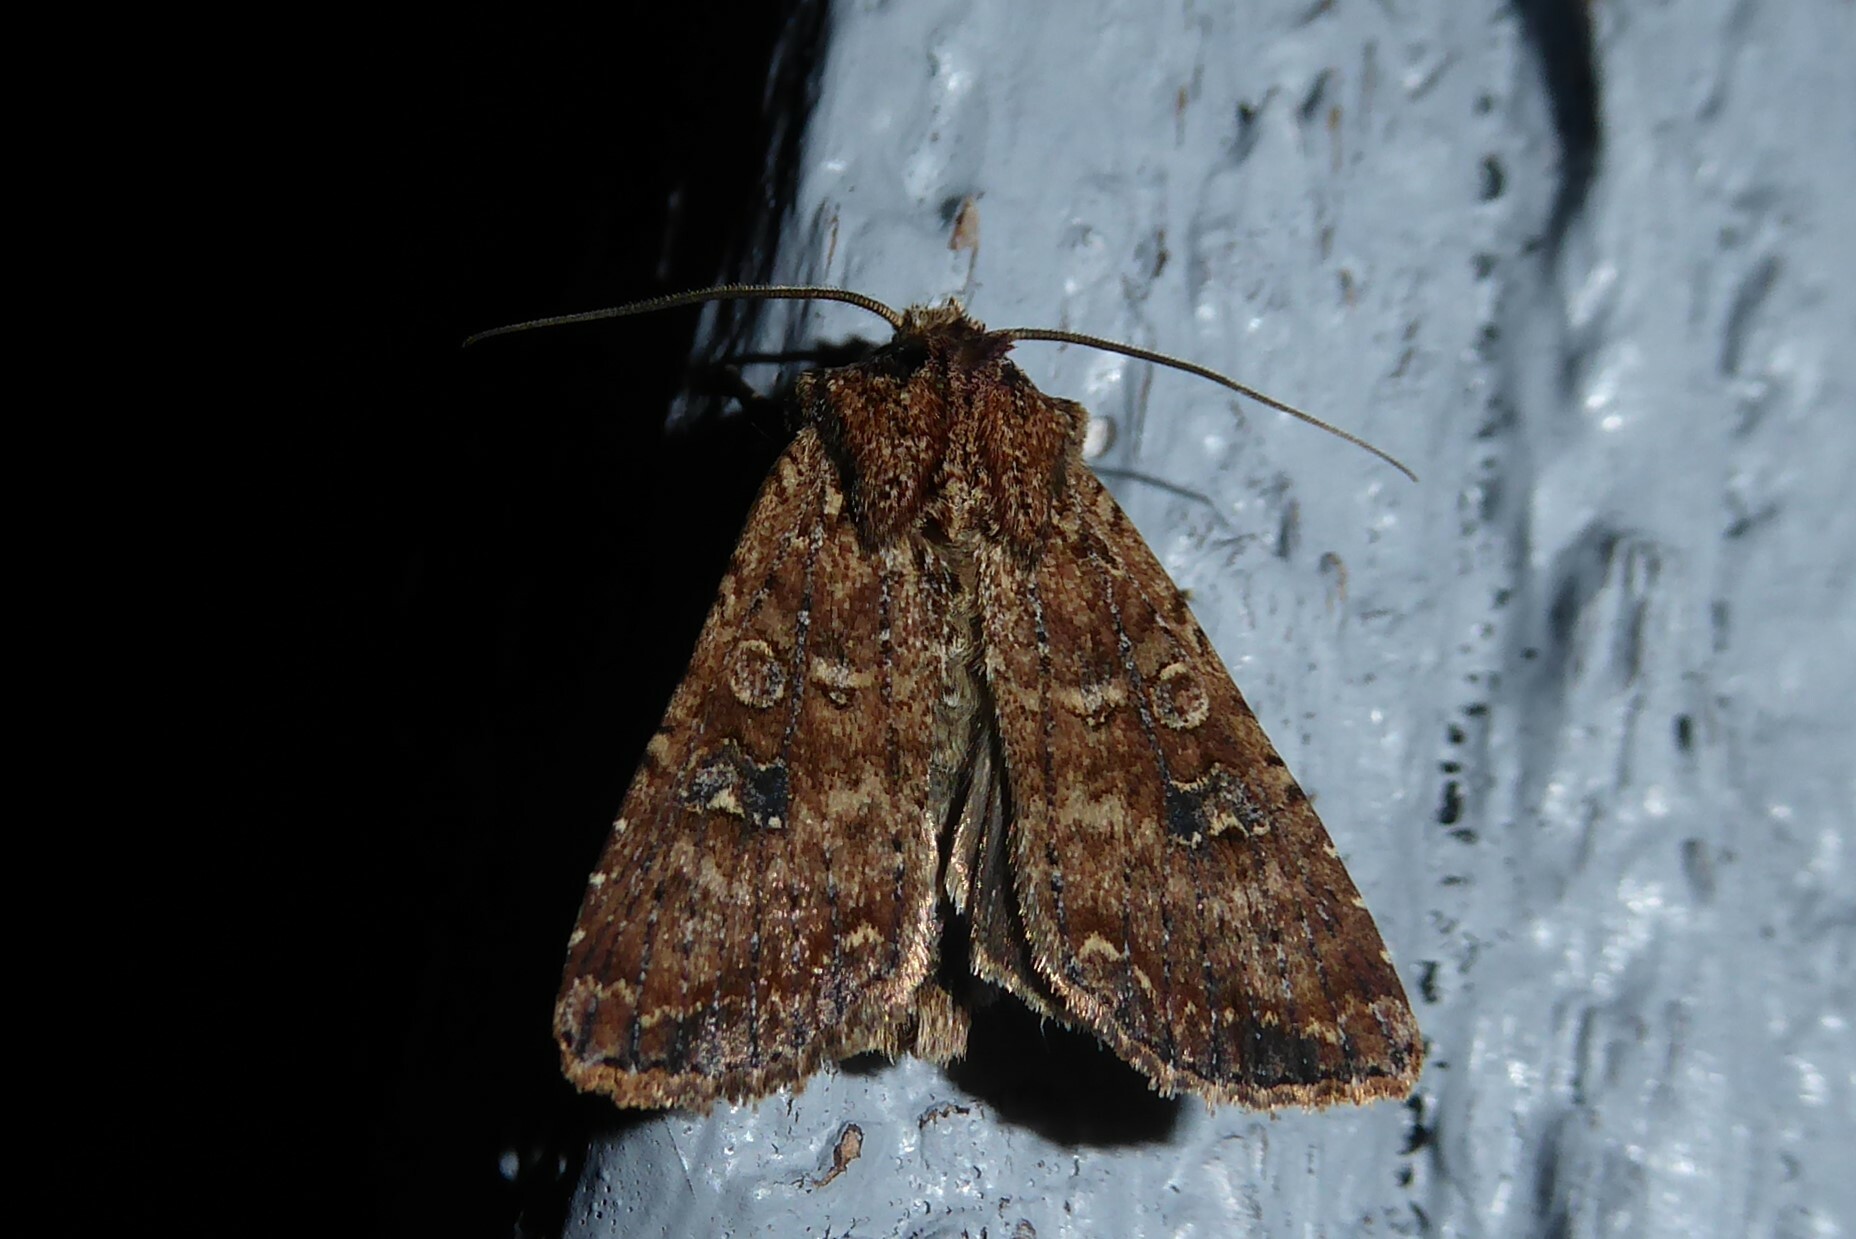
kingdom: Animalia
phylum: Arthropoda
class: Insecta
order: Lepidoptera
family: Noctuidae
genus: Ichneutica
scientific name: Ichneutica morosa
